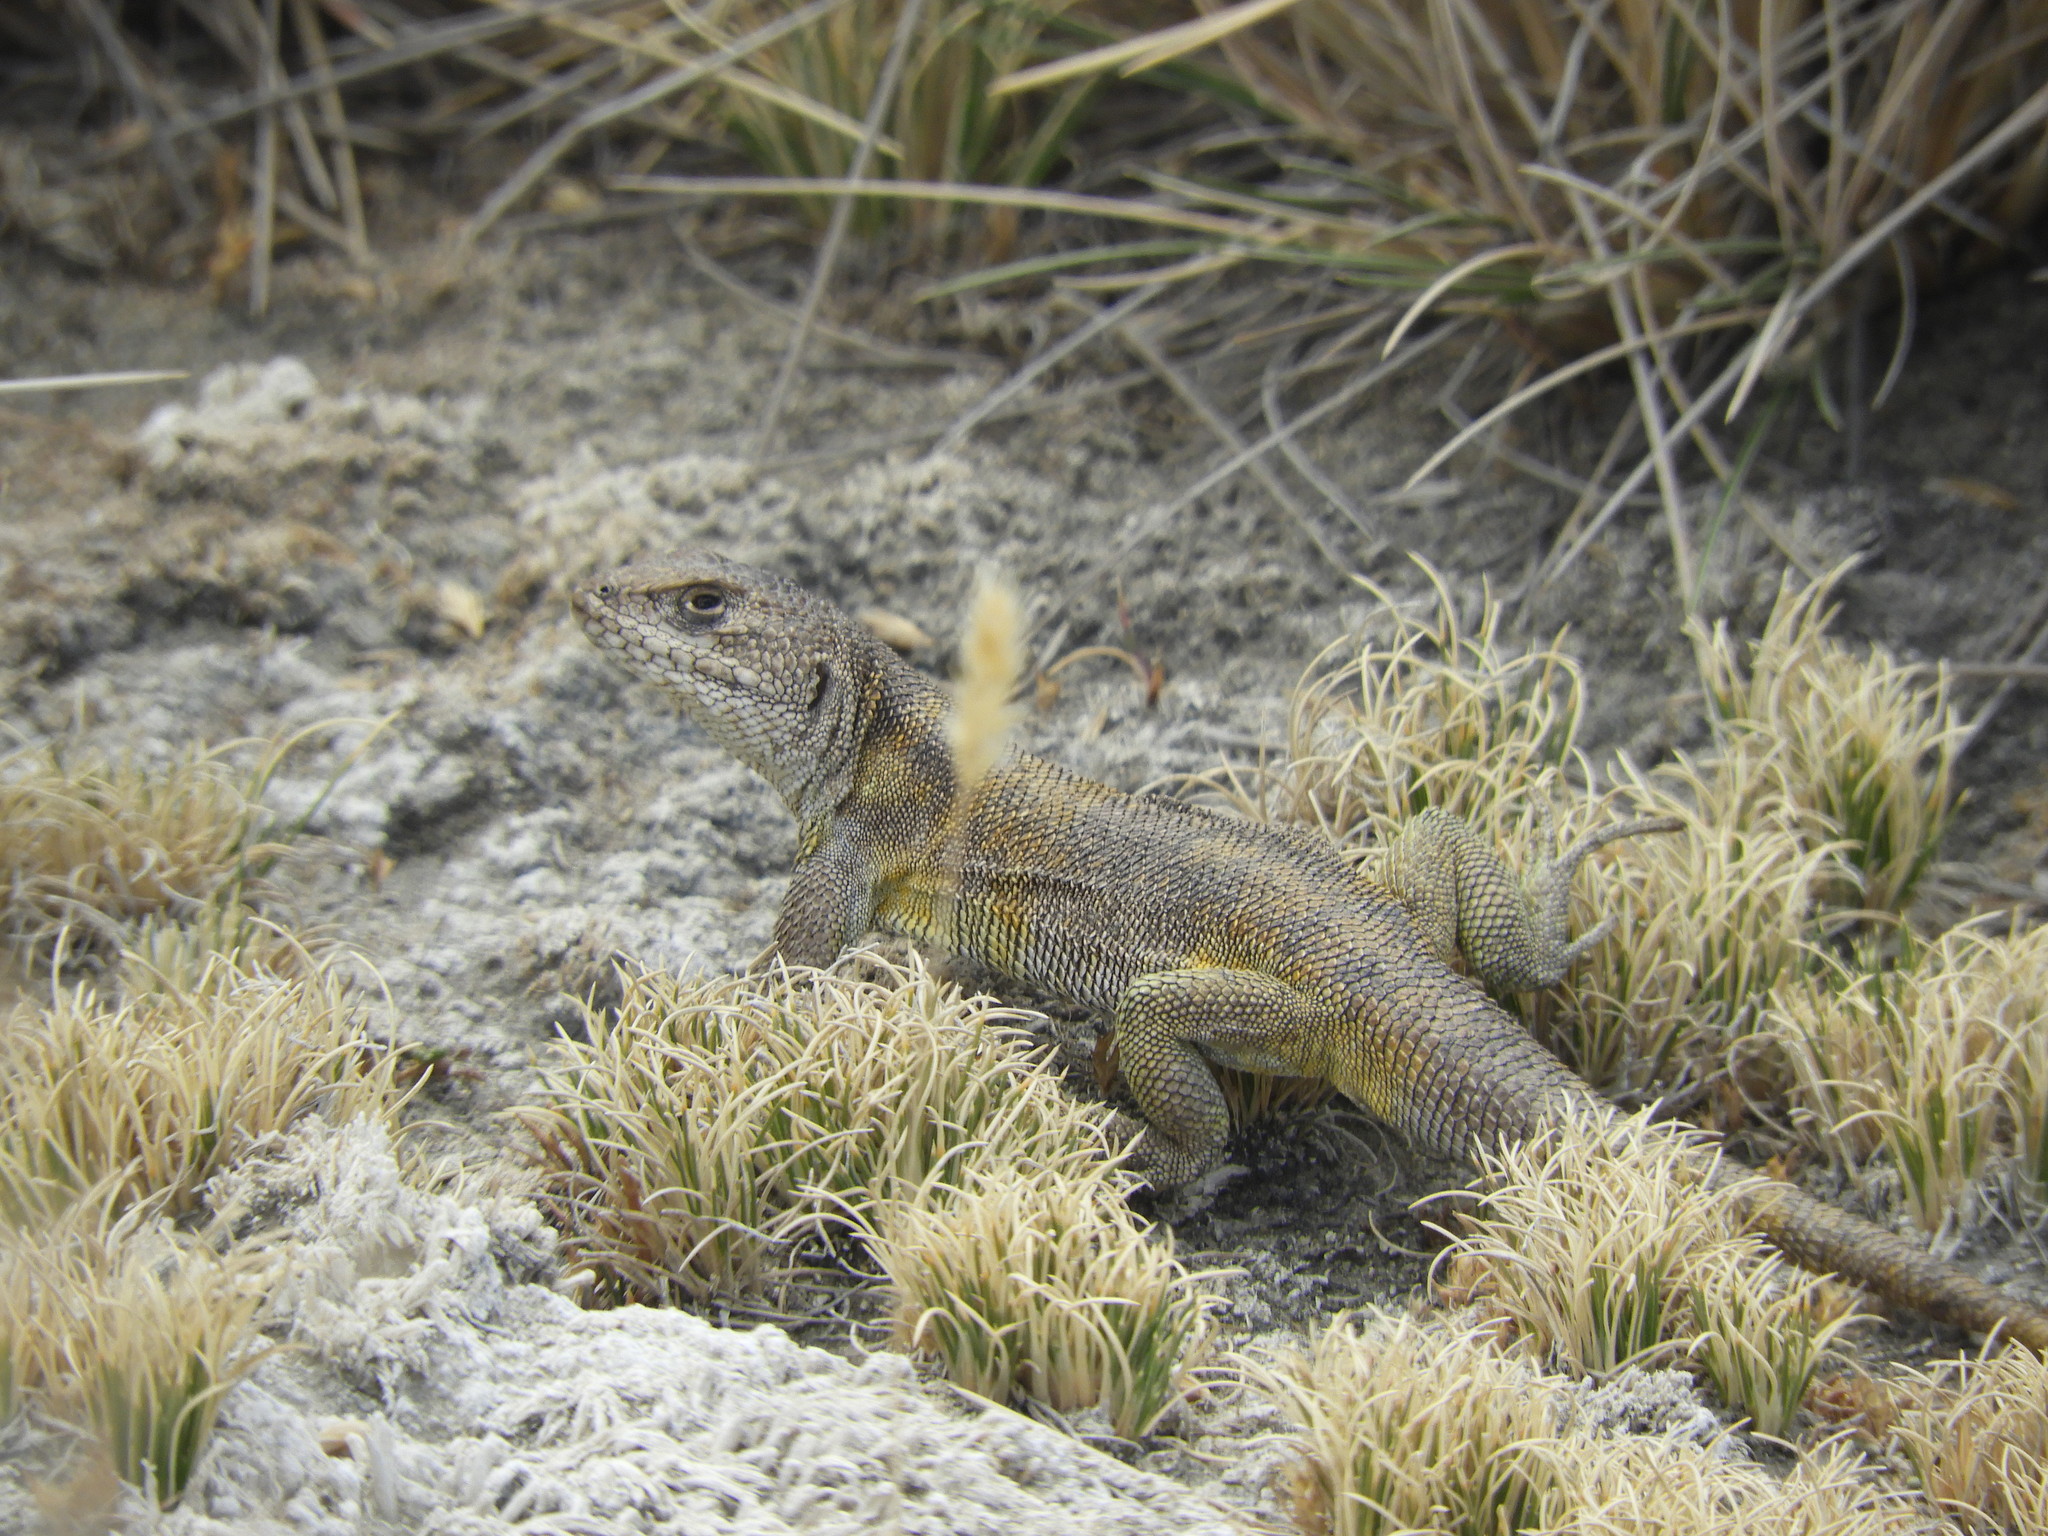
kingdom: Animalia
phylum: Chordata
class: Squamata
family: Liolaemidae
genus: Liolaemus
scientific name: Liolaemus signifer
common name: Zodiac tree iguana
